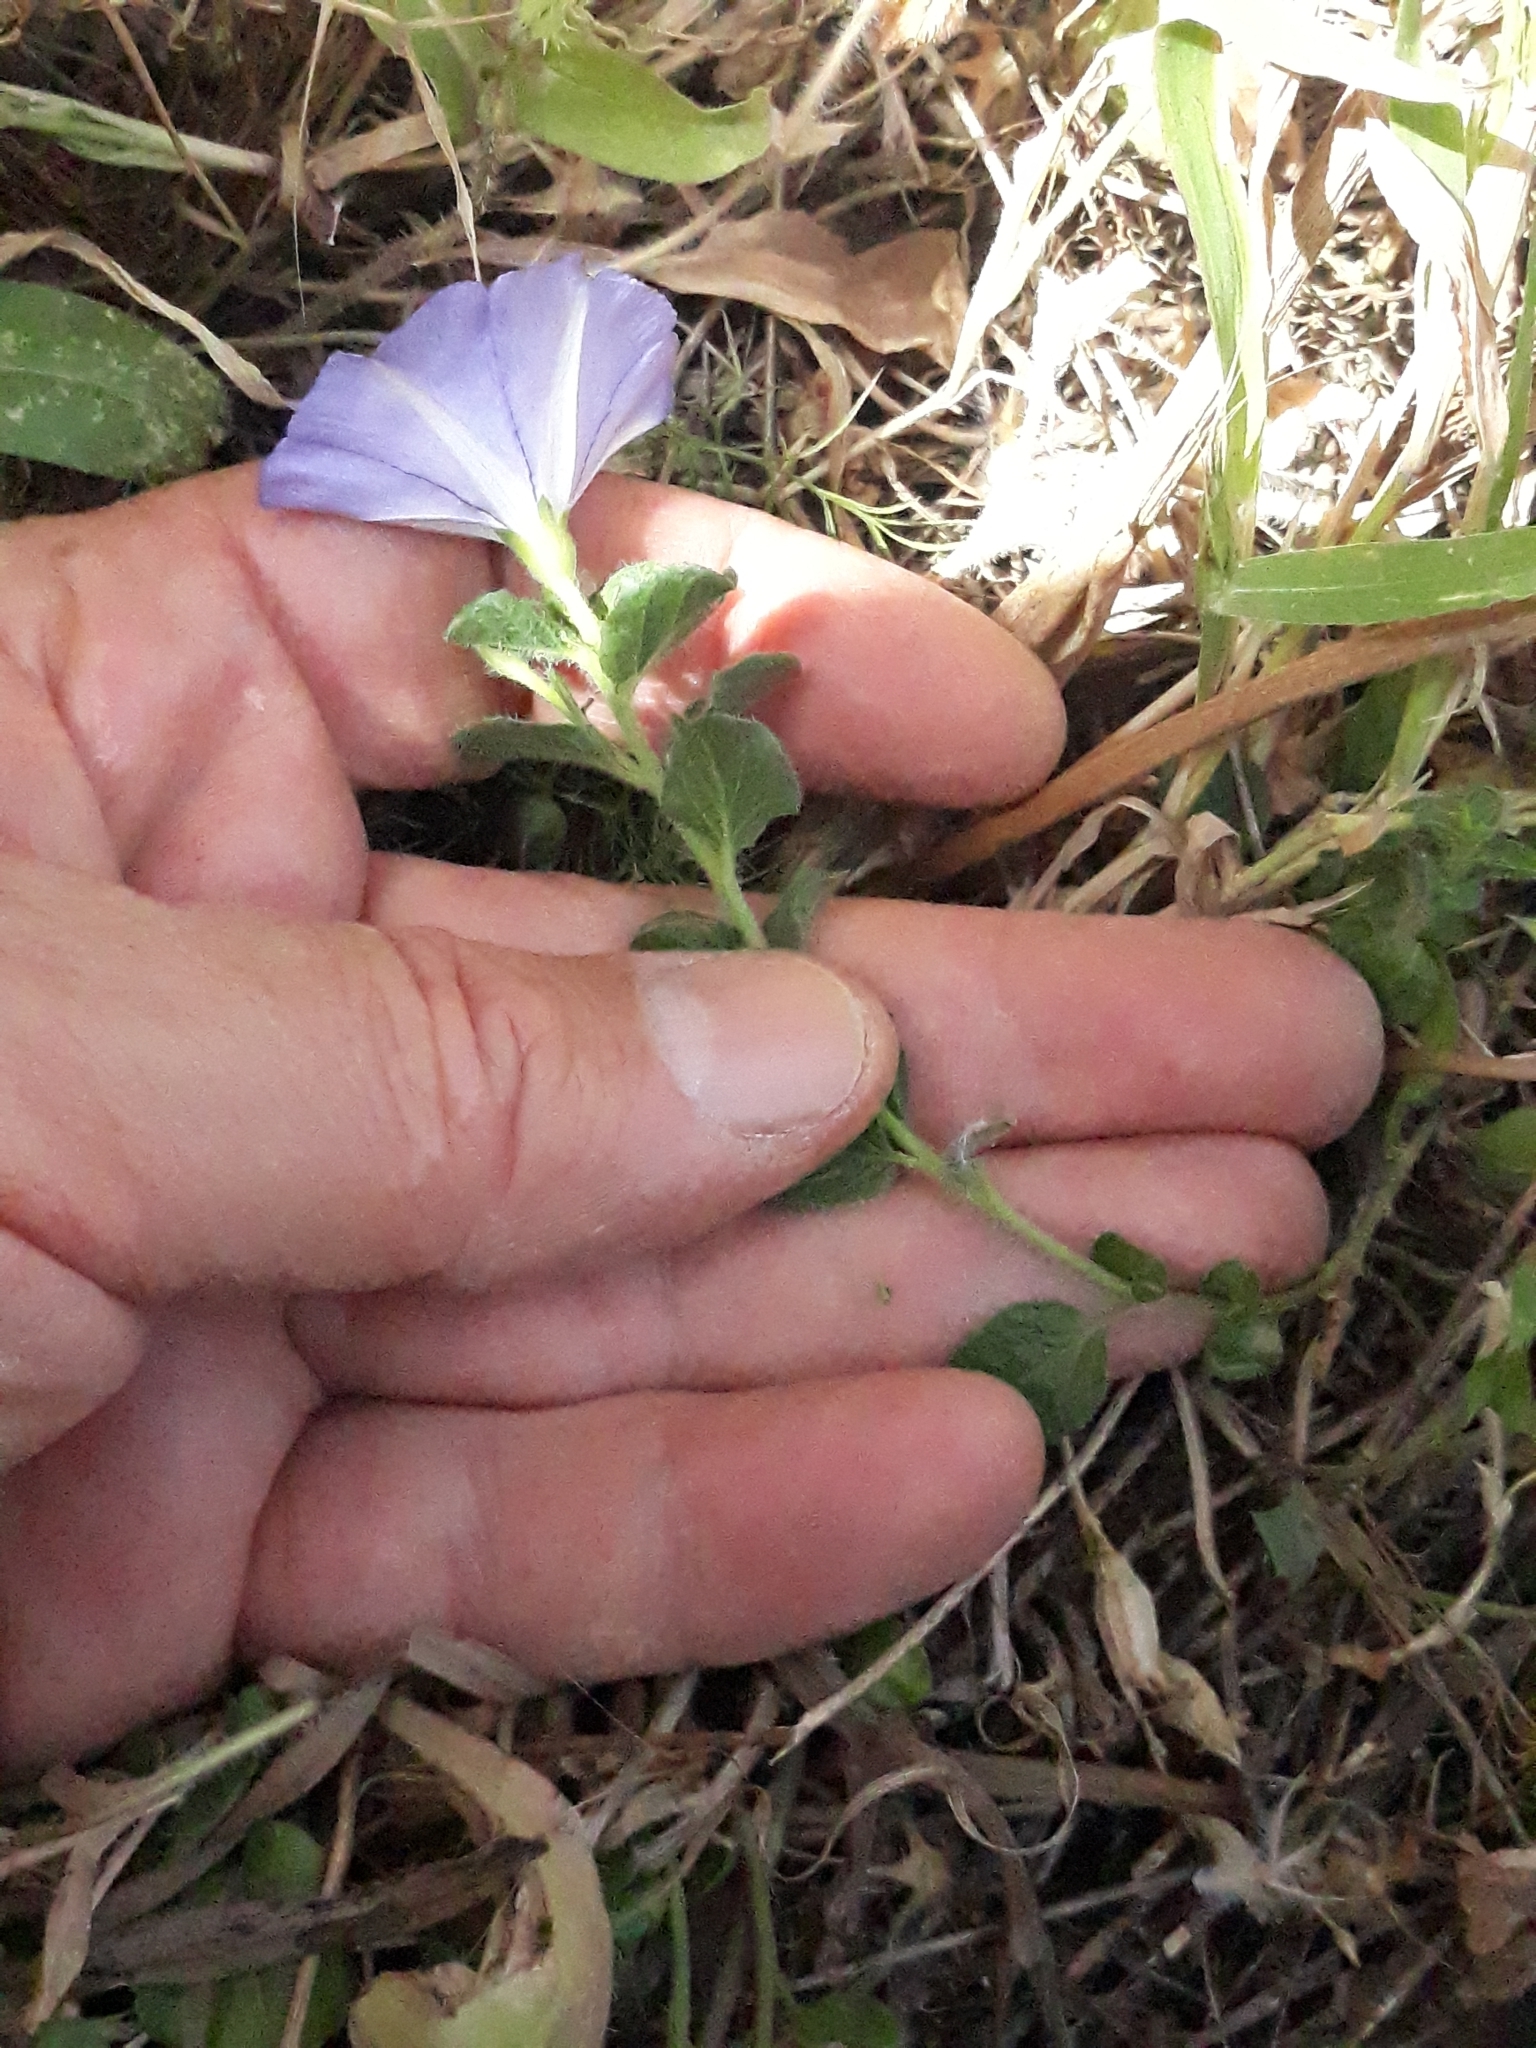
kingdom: Plantae
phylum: Tracheophyta
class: Magnoliopsida
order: Solanales
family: Convolvulaceae
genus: Convolvulus
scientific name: Convolvulus sabatius
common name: Ground blue-convolvulus
